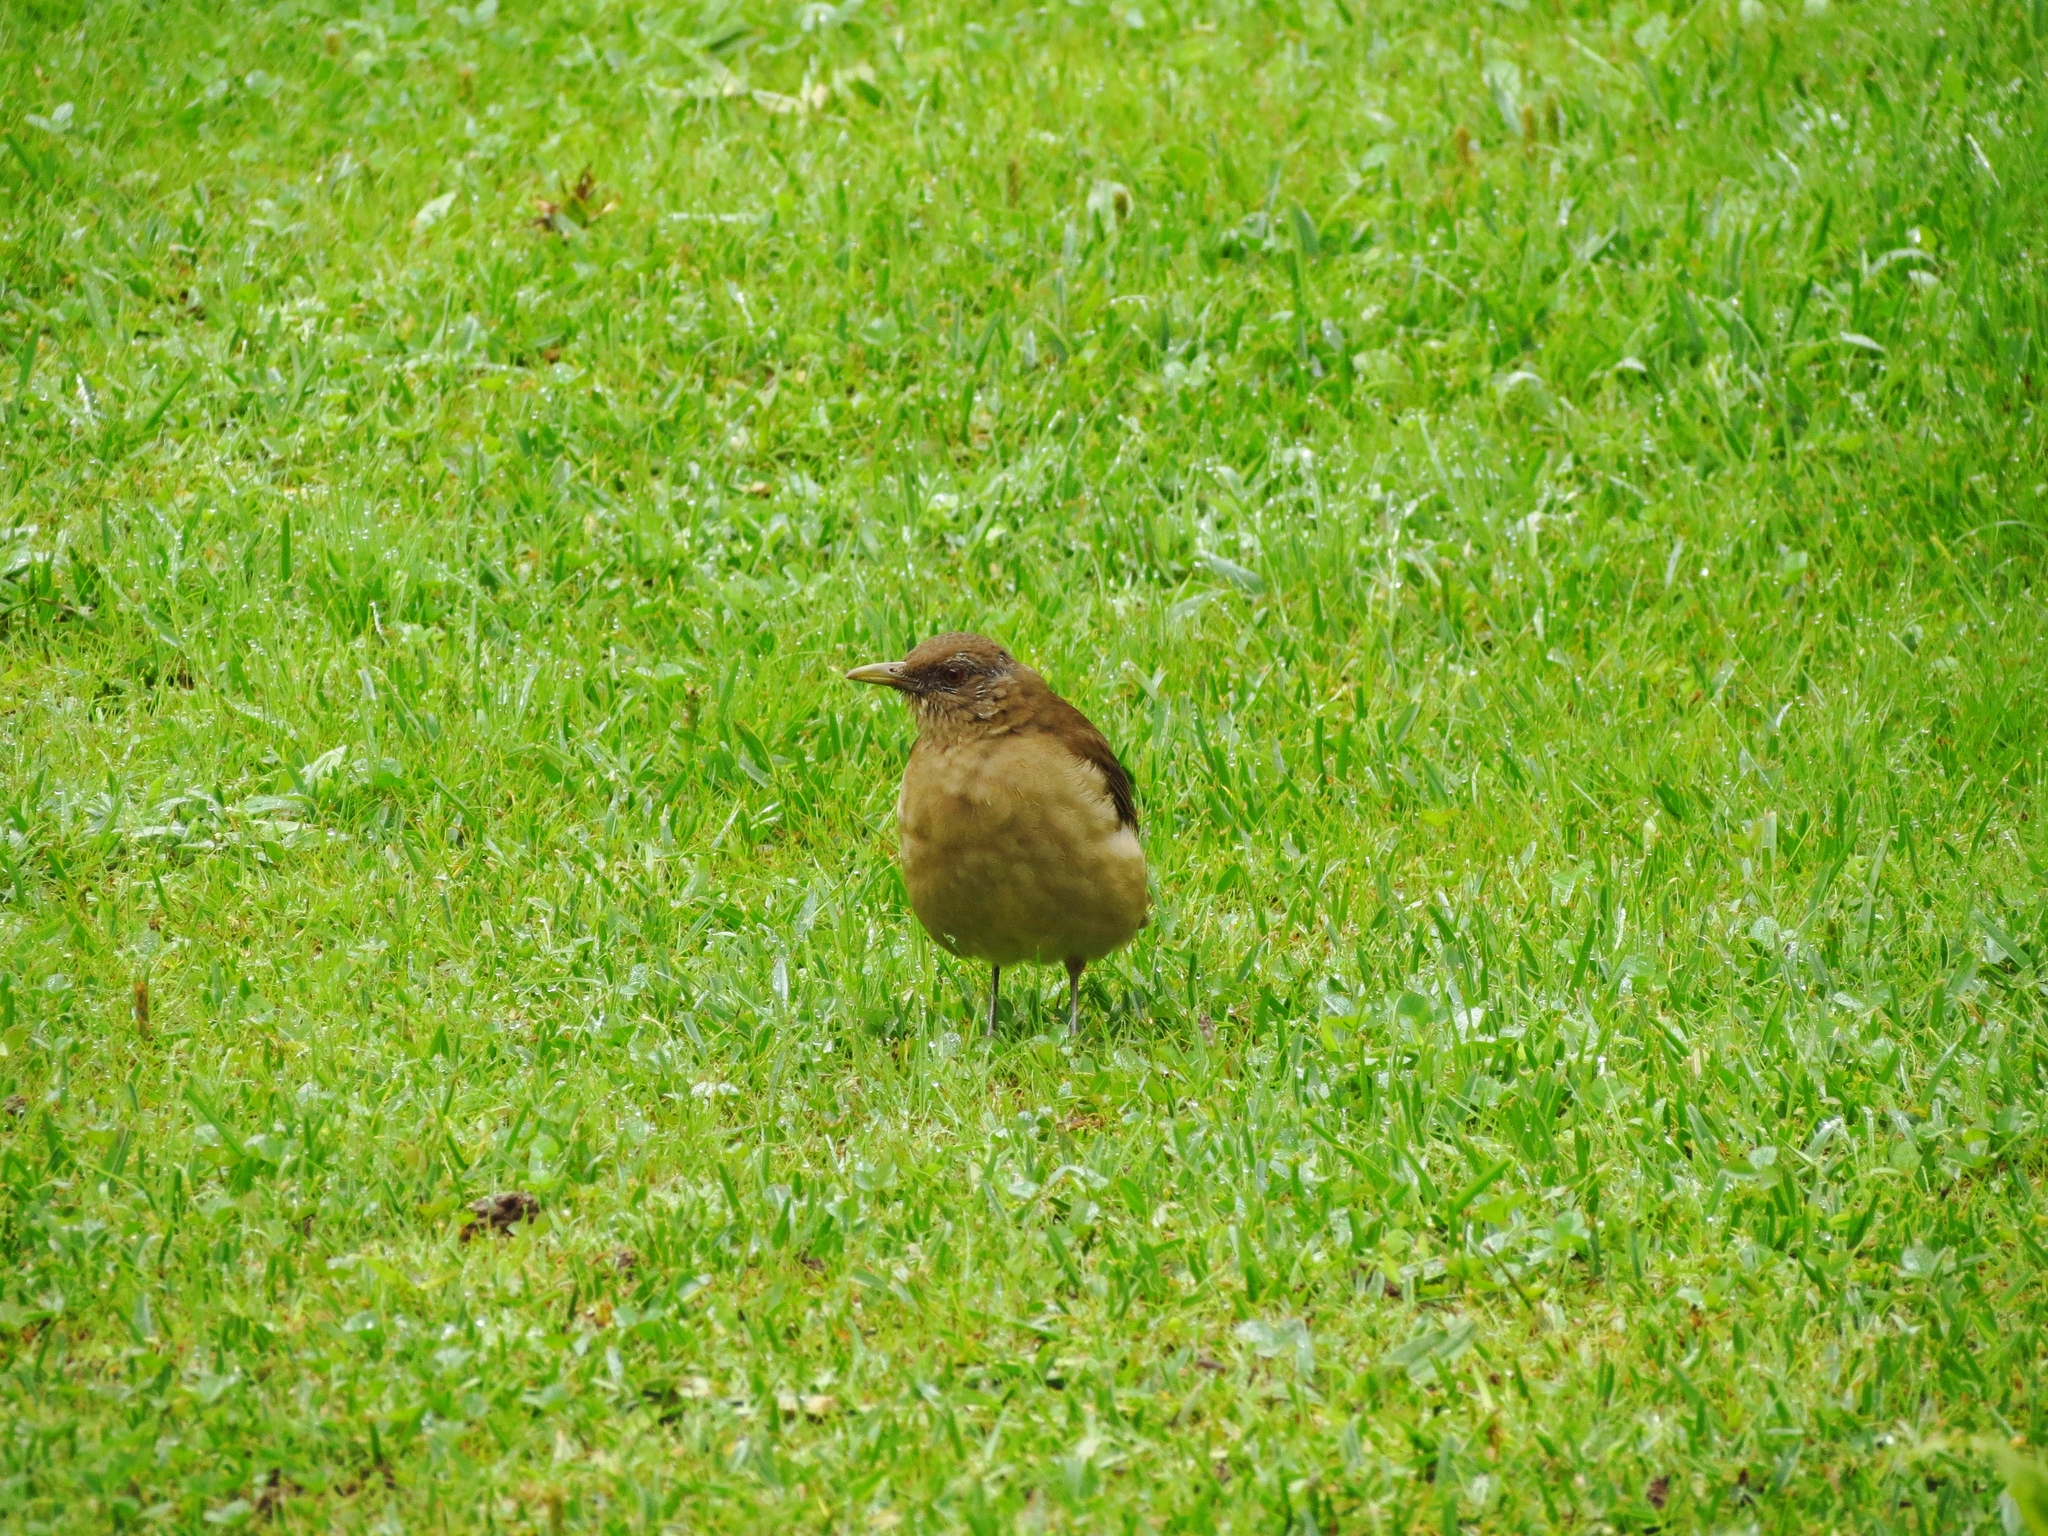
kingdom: Animalia
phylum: Chordata
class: Aves
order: Passeriformes
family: Turdidae
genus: Turdus
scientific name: Turdus grayi
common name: Clay-colored thrush
